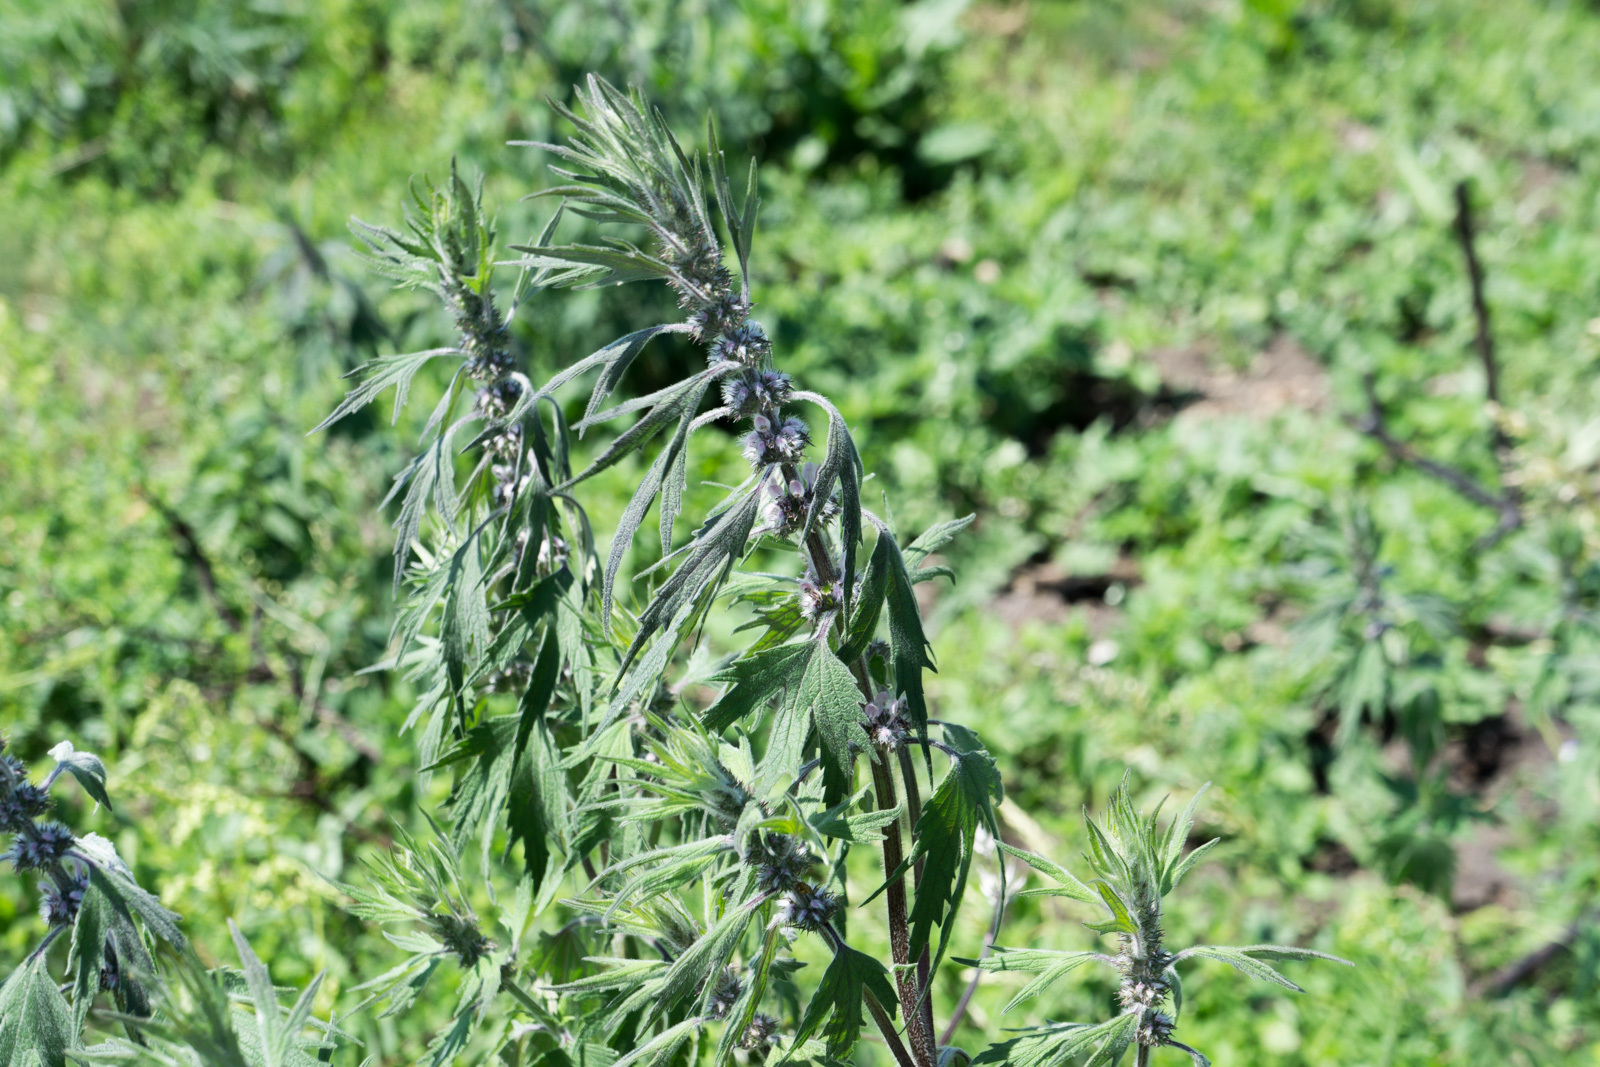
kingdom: Plantae
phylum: Tracheophyta
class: Magnoliopsida
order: Lamiales
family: Lamiaceae
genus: Leonurus
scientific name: Leonurus cardiaca
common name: Motherwort
